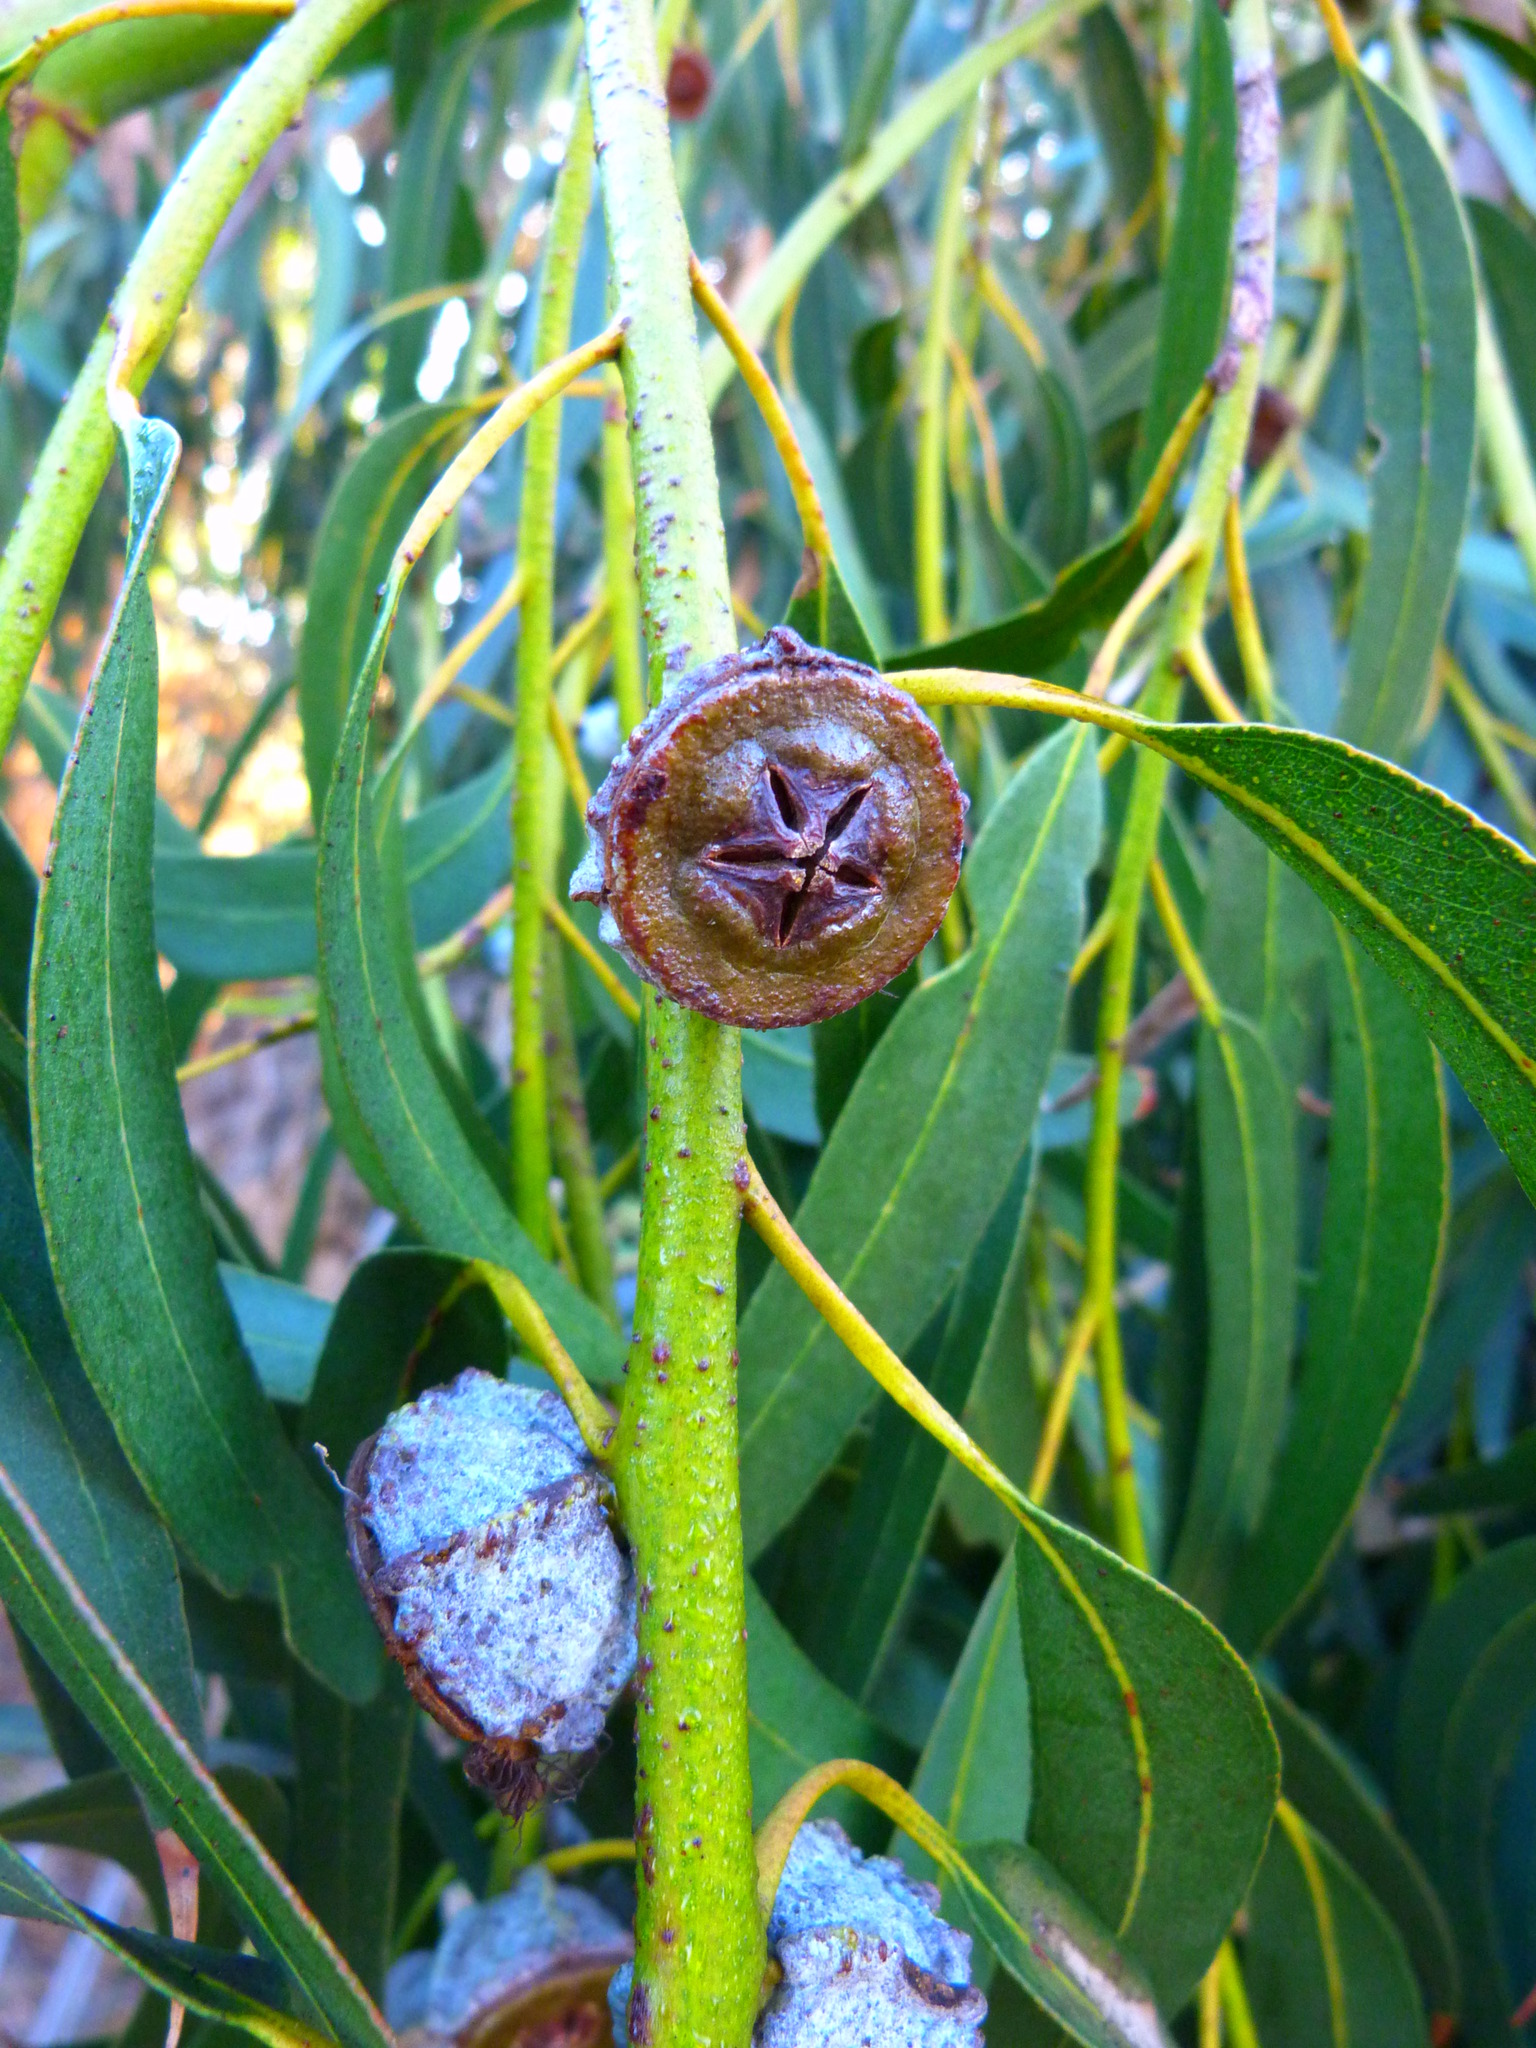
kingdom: Plantae
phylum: Tracheophyta
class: Magnoliopsida
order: Myrtales
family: Myrtaceae
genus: Eucalyptus
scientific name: Eucalyptus globulus
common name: Southern blue-gum
